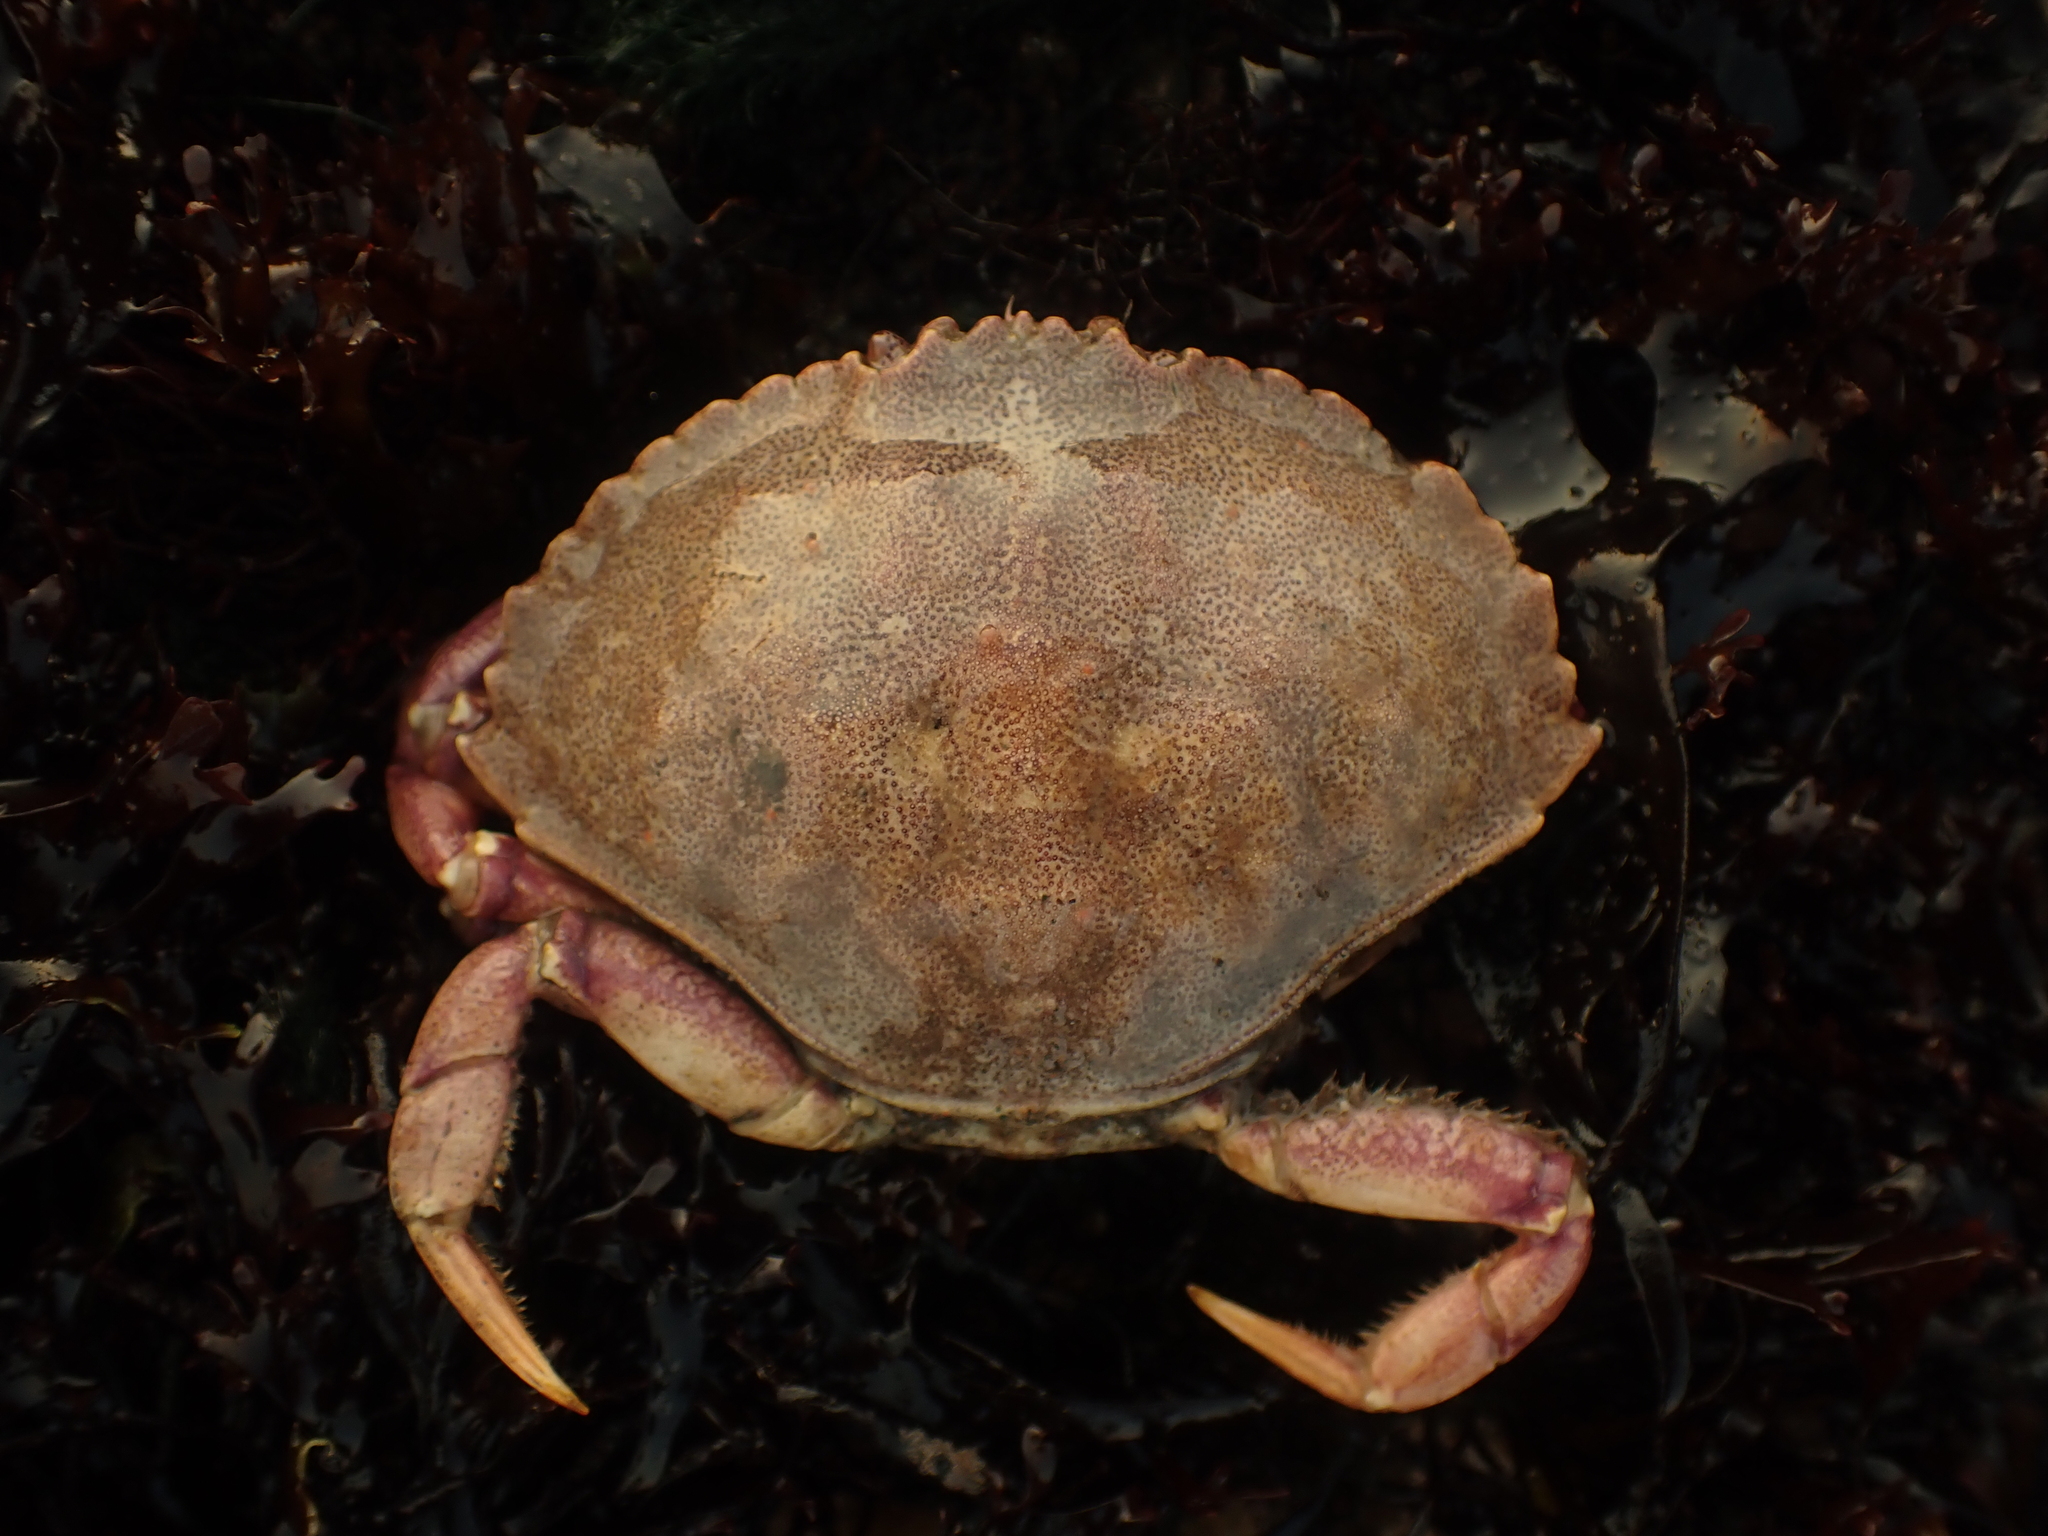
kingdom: Animalia
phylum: Arthropoda
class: Malacostraca
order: Decapoda
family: Cancridae
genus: Cancer
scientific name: Cancer irroratus
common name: Atlantic rock crab
